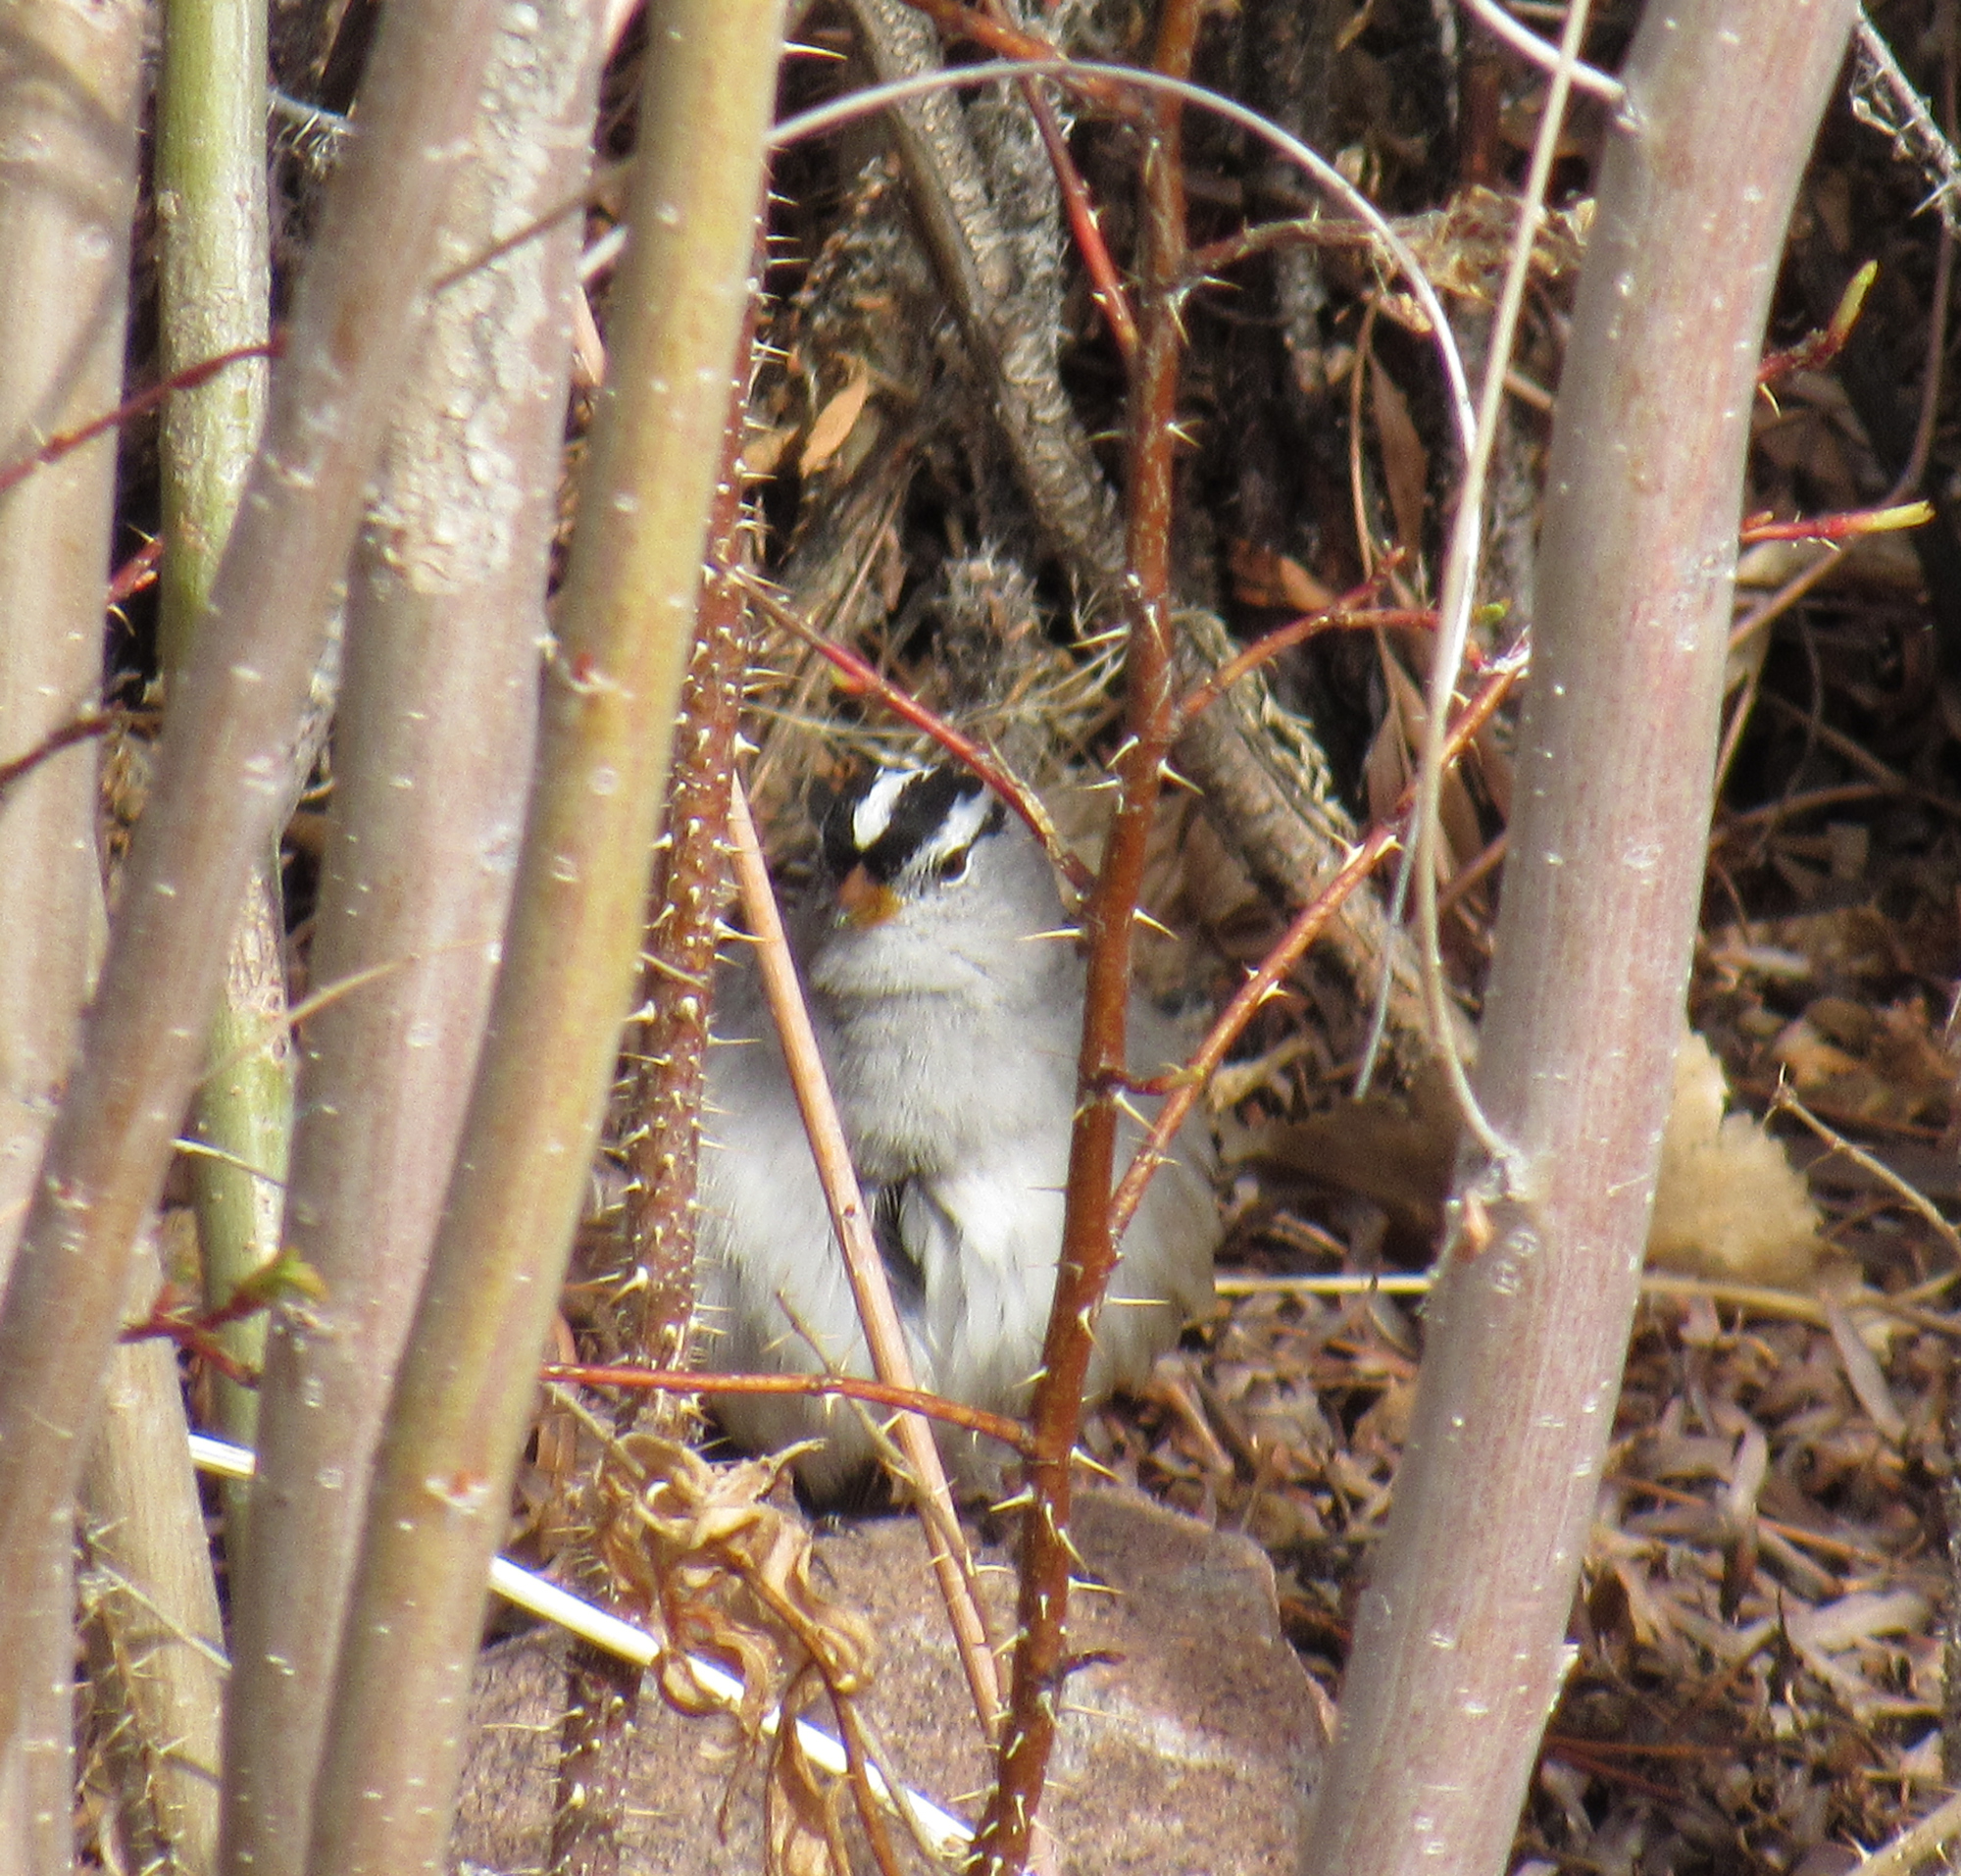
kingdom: Animalia
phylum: Chordata
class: Aves
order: Passeriformes
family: Passerellidae
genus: Zonotrichia
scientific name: Zonotrichia leucophrys
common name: White-crowned sparrow
